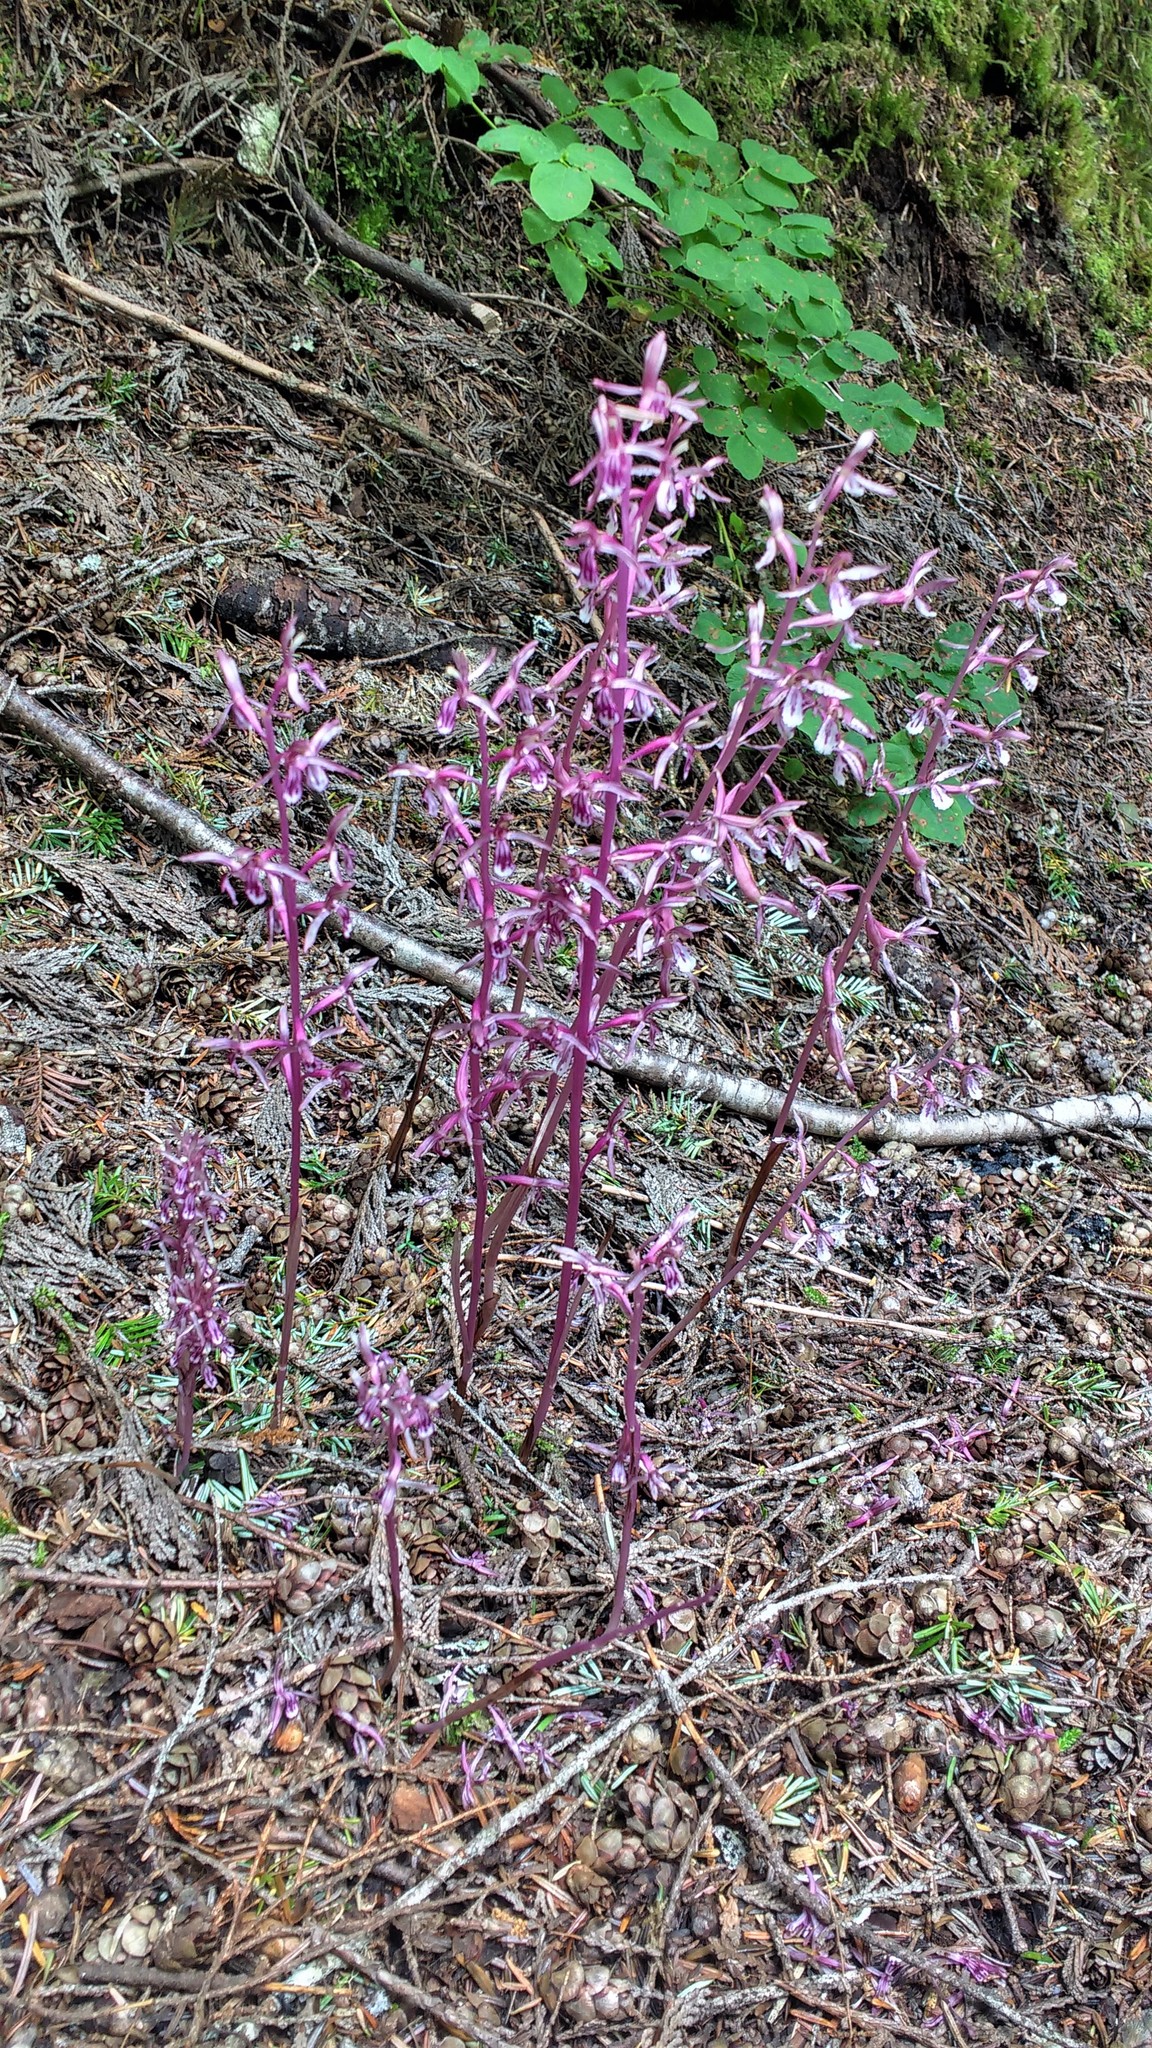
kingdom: Plantae
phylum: Tracheophyta
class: Liliopsida
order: Asparagales
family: Orchidaceae
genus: Corallorhiza
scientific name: Corallorhiza mertensiana
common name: Pacific coralroot
